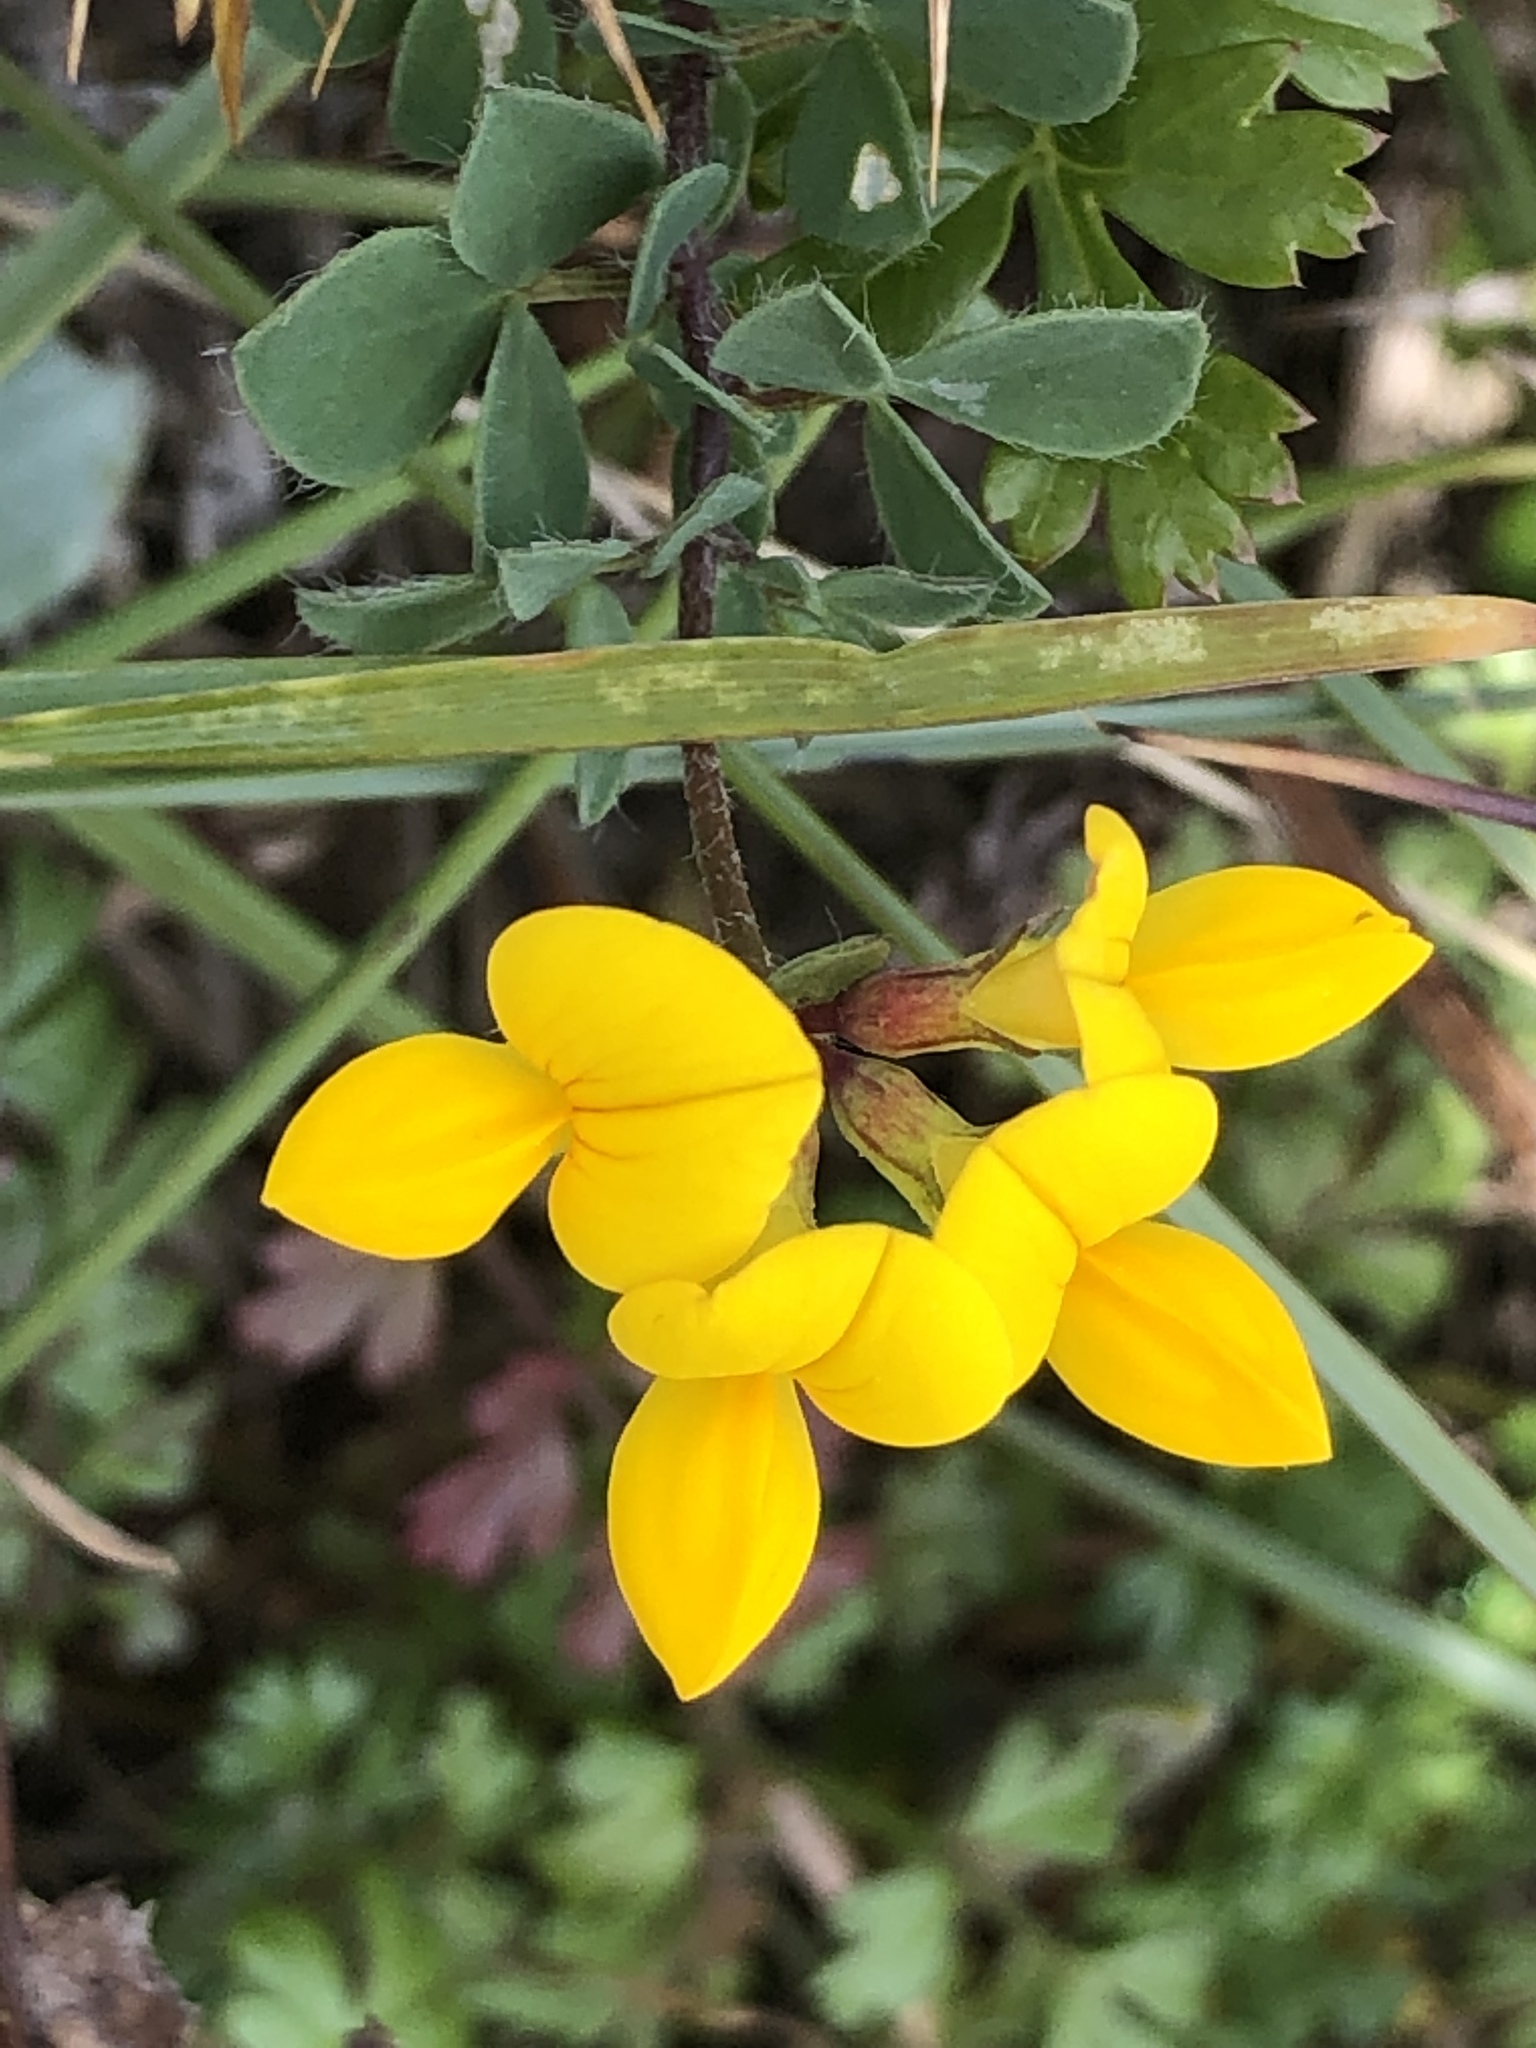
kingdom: Plantae
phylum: Tracheophyta
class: Magnoliopsida
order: Fabales
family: Fabaceae
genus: Lotus
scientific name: Lotus corniculatus
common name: Common bird's-foot-trefoil
